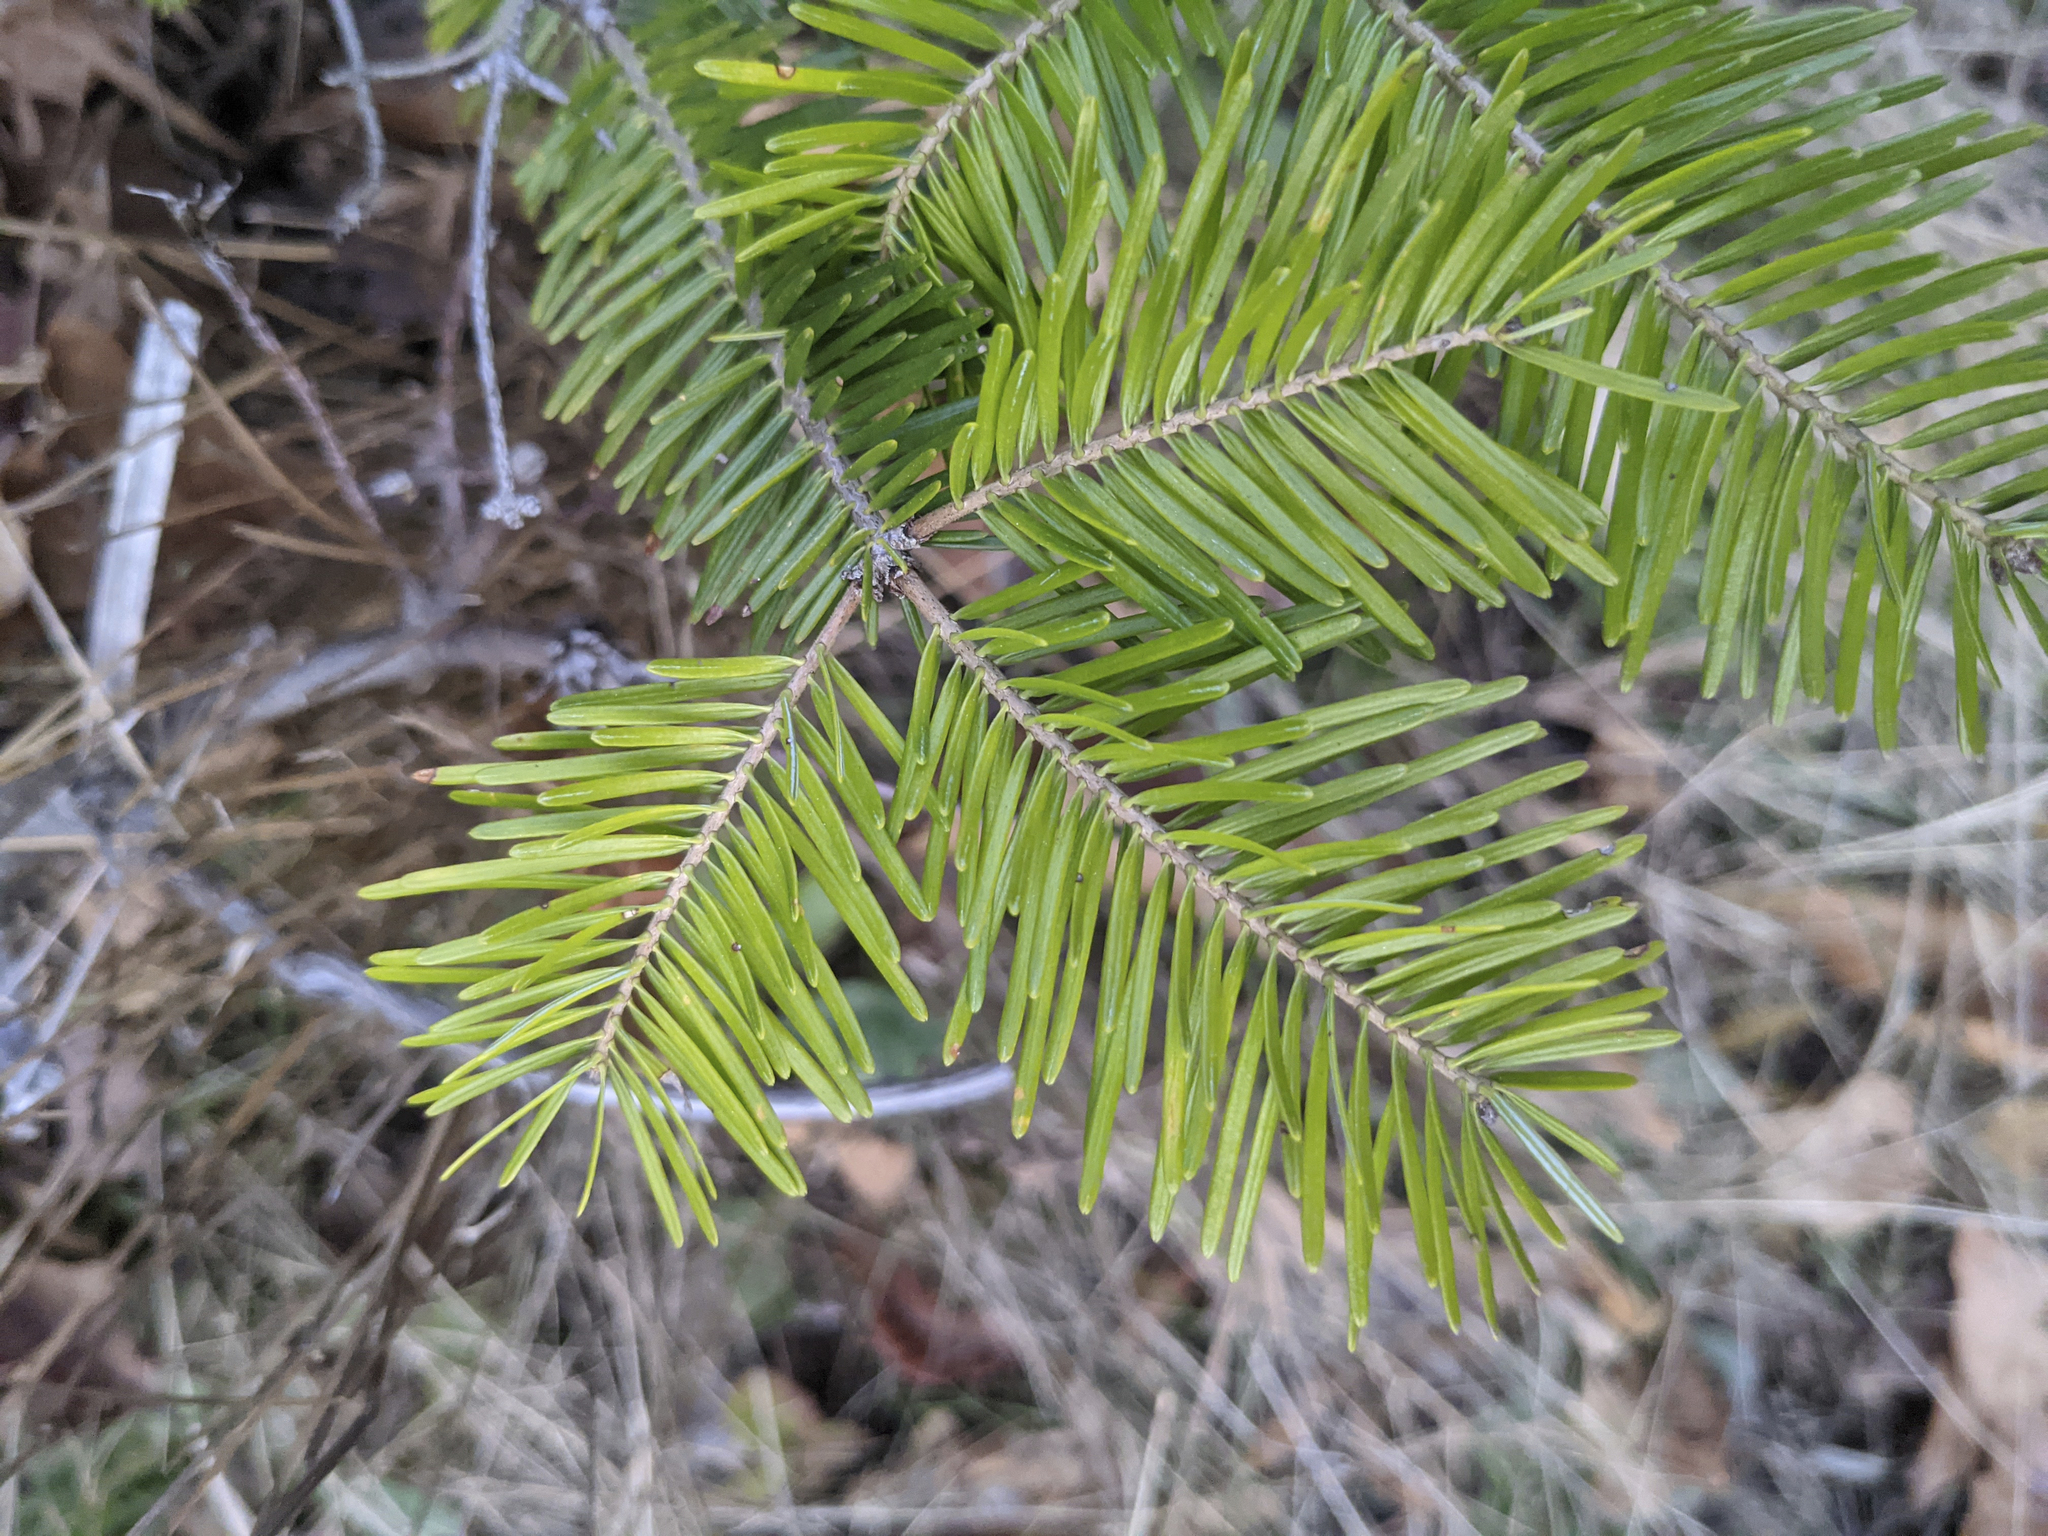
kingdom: Plantae
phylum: Tracheophyta
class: Pinopsida
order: Pinales
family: Pinaceae
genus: Abies
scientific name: Abies balsamea
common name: Balsam fir
